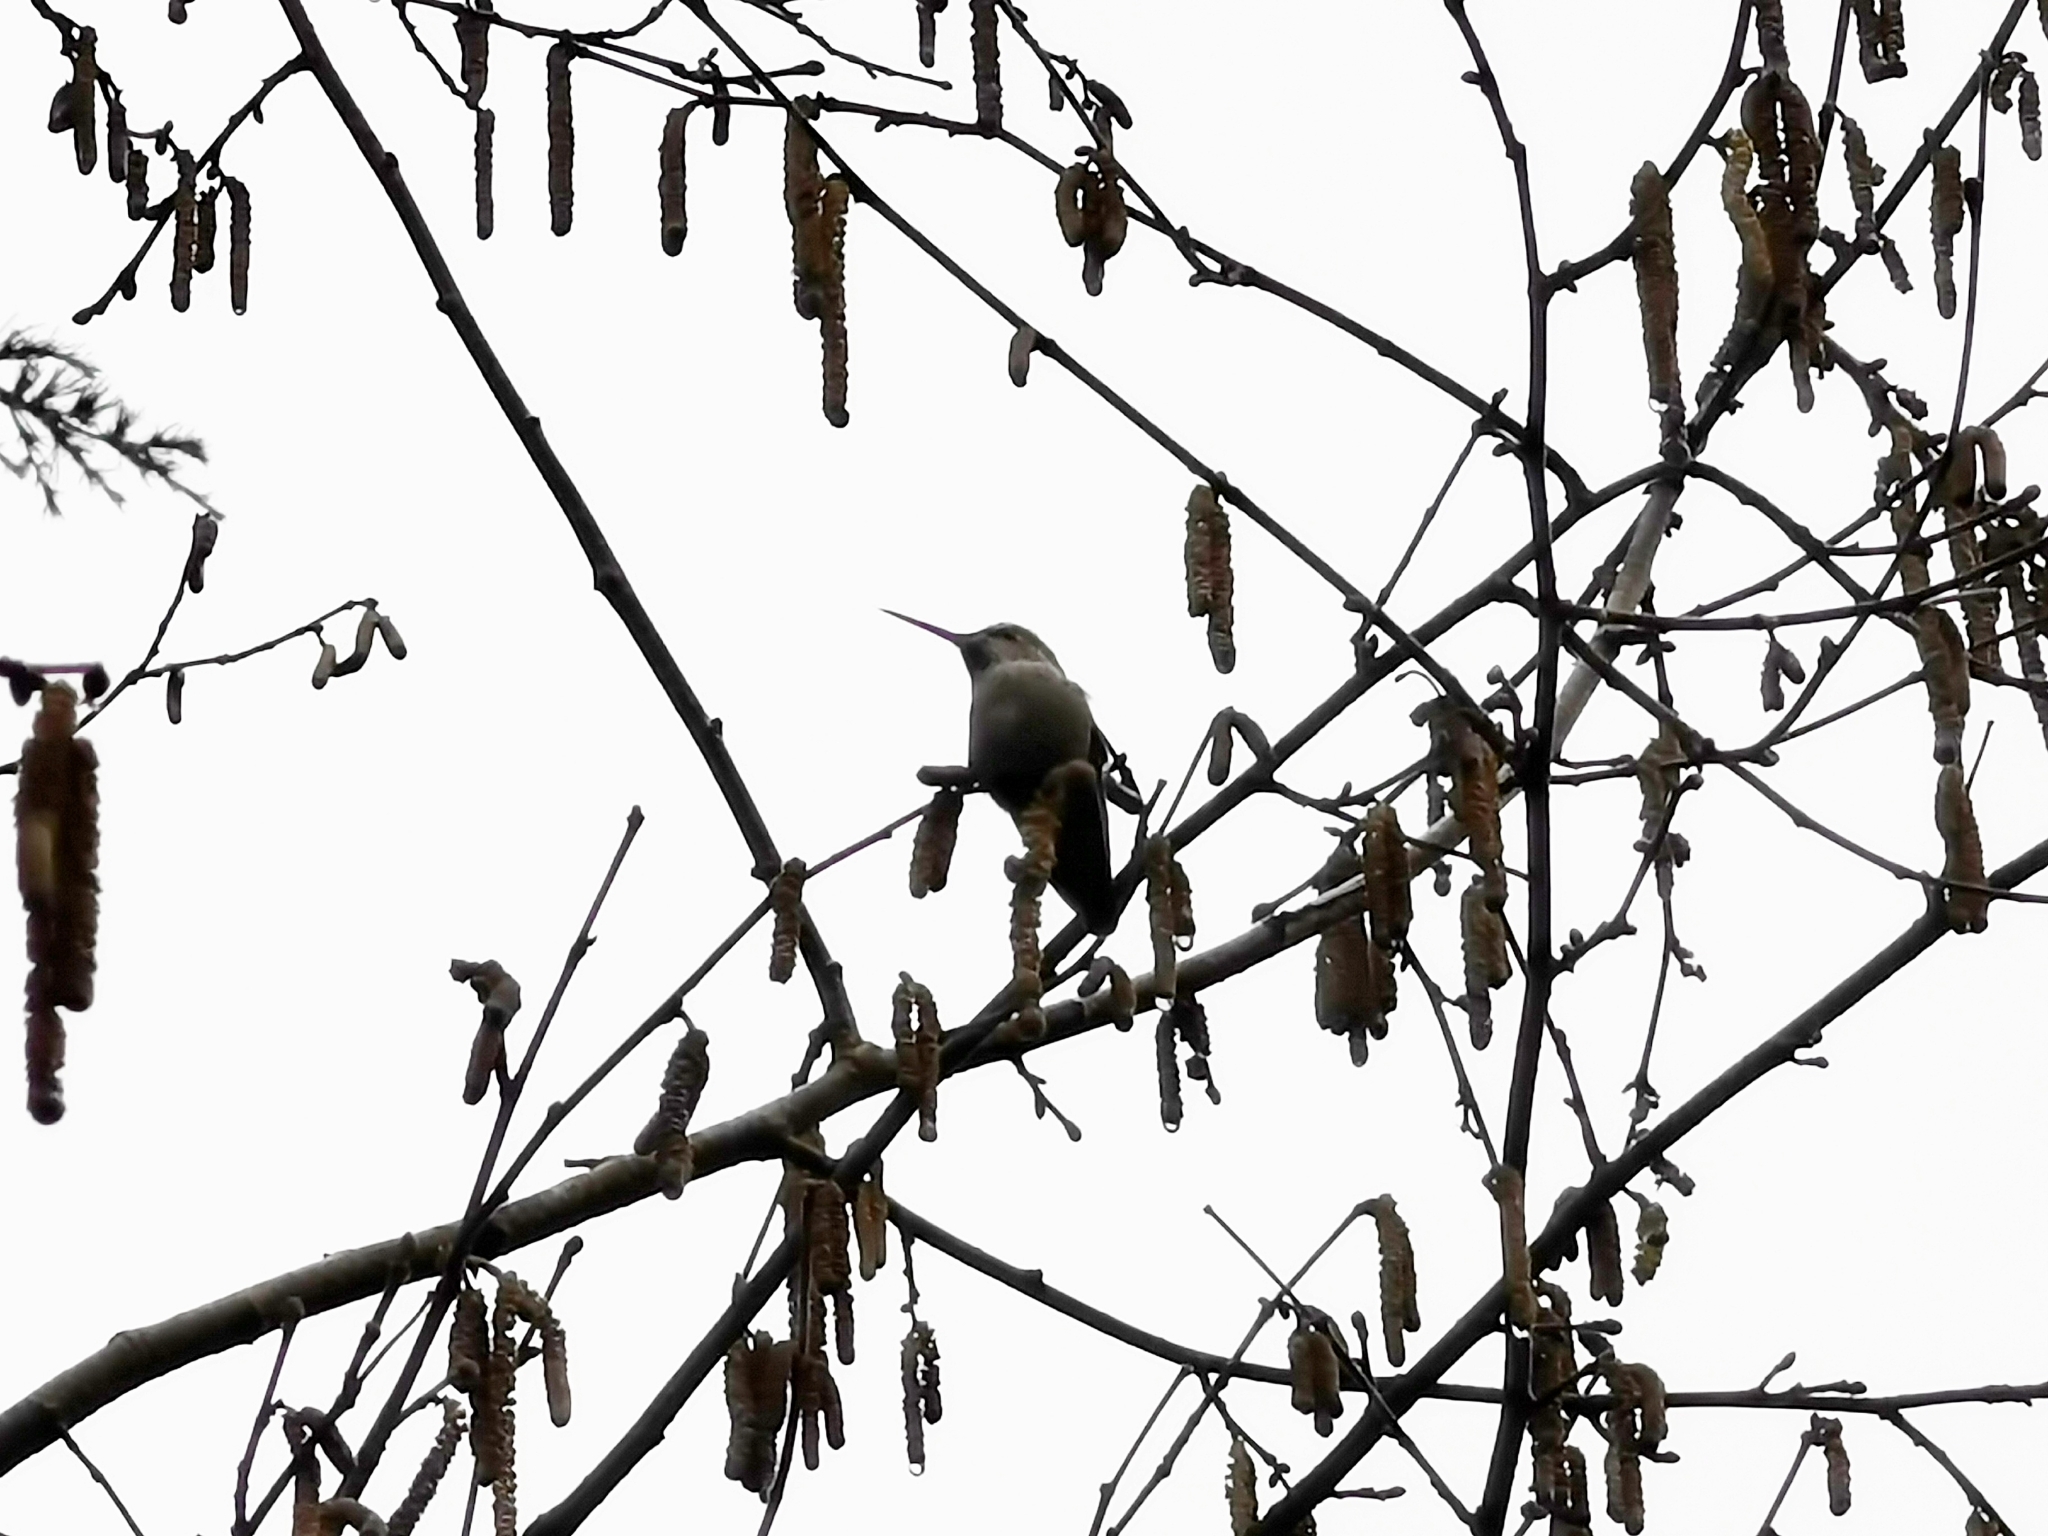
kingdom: Animalia
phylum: Chordata
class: Aves
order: Apodiformes
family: Trochilidae
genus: Calypte
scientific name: Calypte anna
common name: Anna's hummingbird
